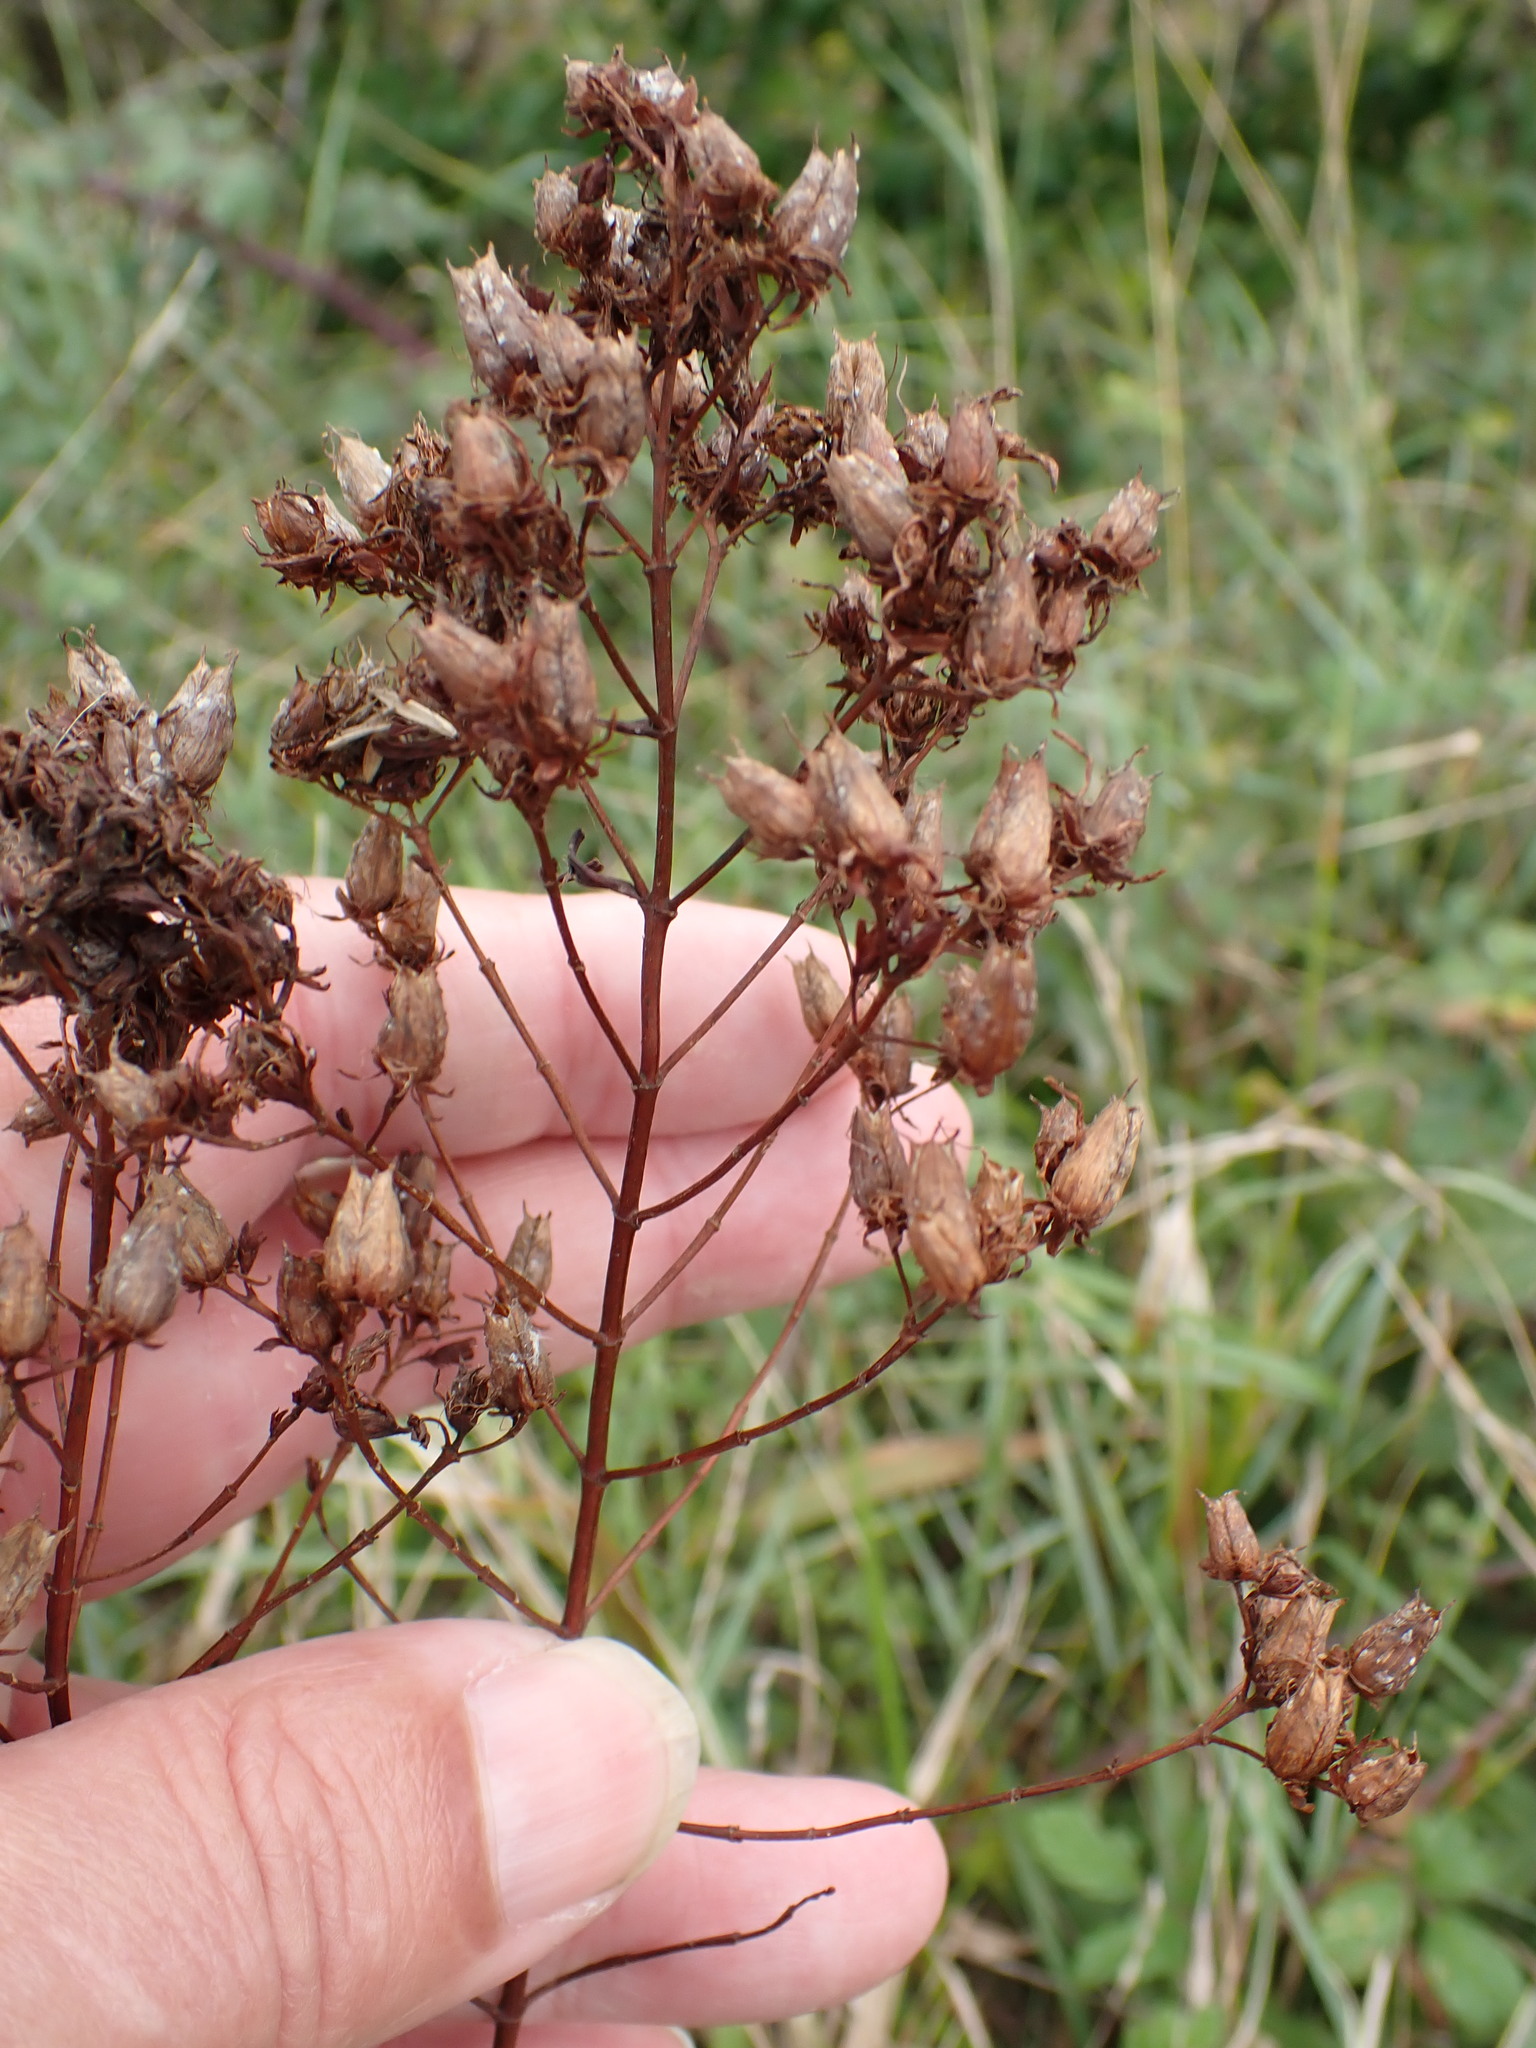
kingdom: Plantae
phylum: Tracheophyta
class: Magnoliopsida
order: Malpighiales
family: Hypericaceae
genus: Hypericum
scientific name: Hypericum perforatum
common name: Common st. johnswort
